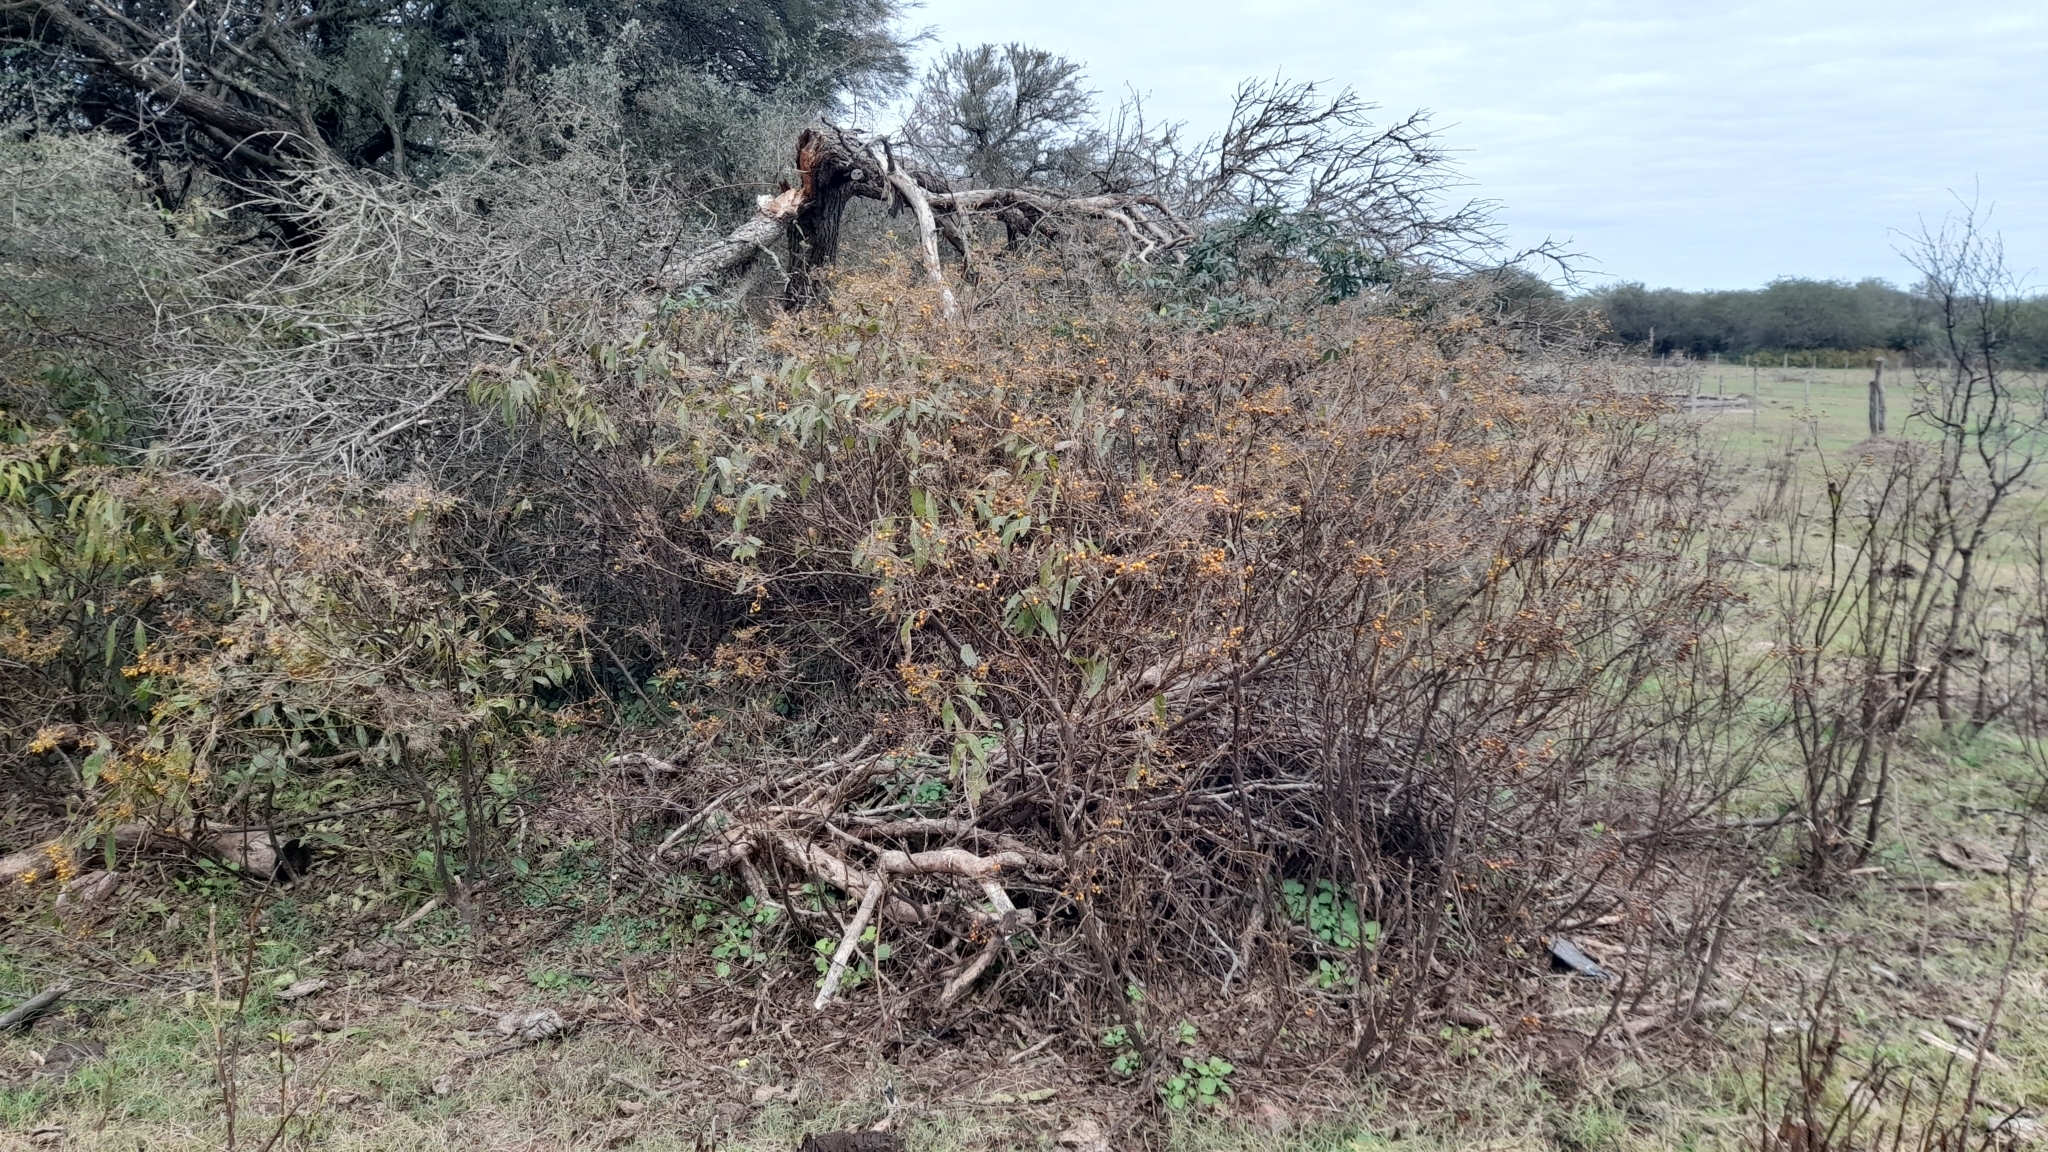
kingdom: Plantae
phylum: Tracheophyta
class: Magnoliopsida
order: Solanales
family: Solanaceae
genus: Solanum
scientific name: Solanum argentinum
